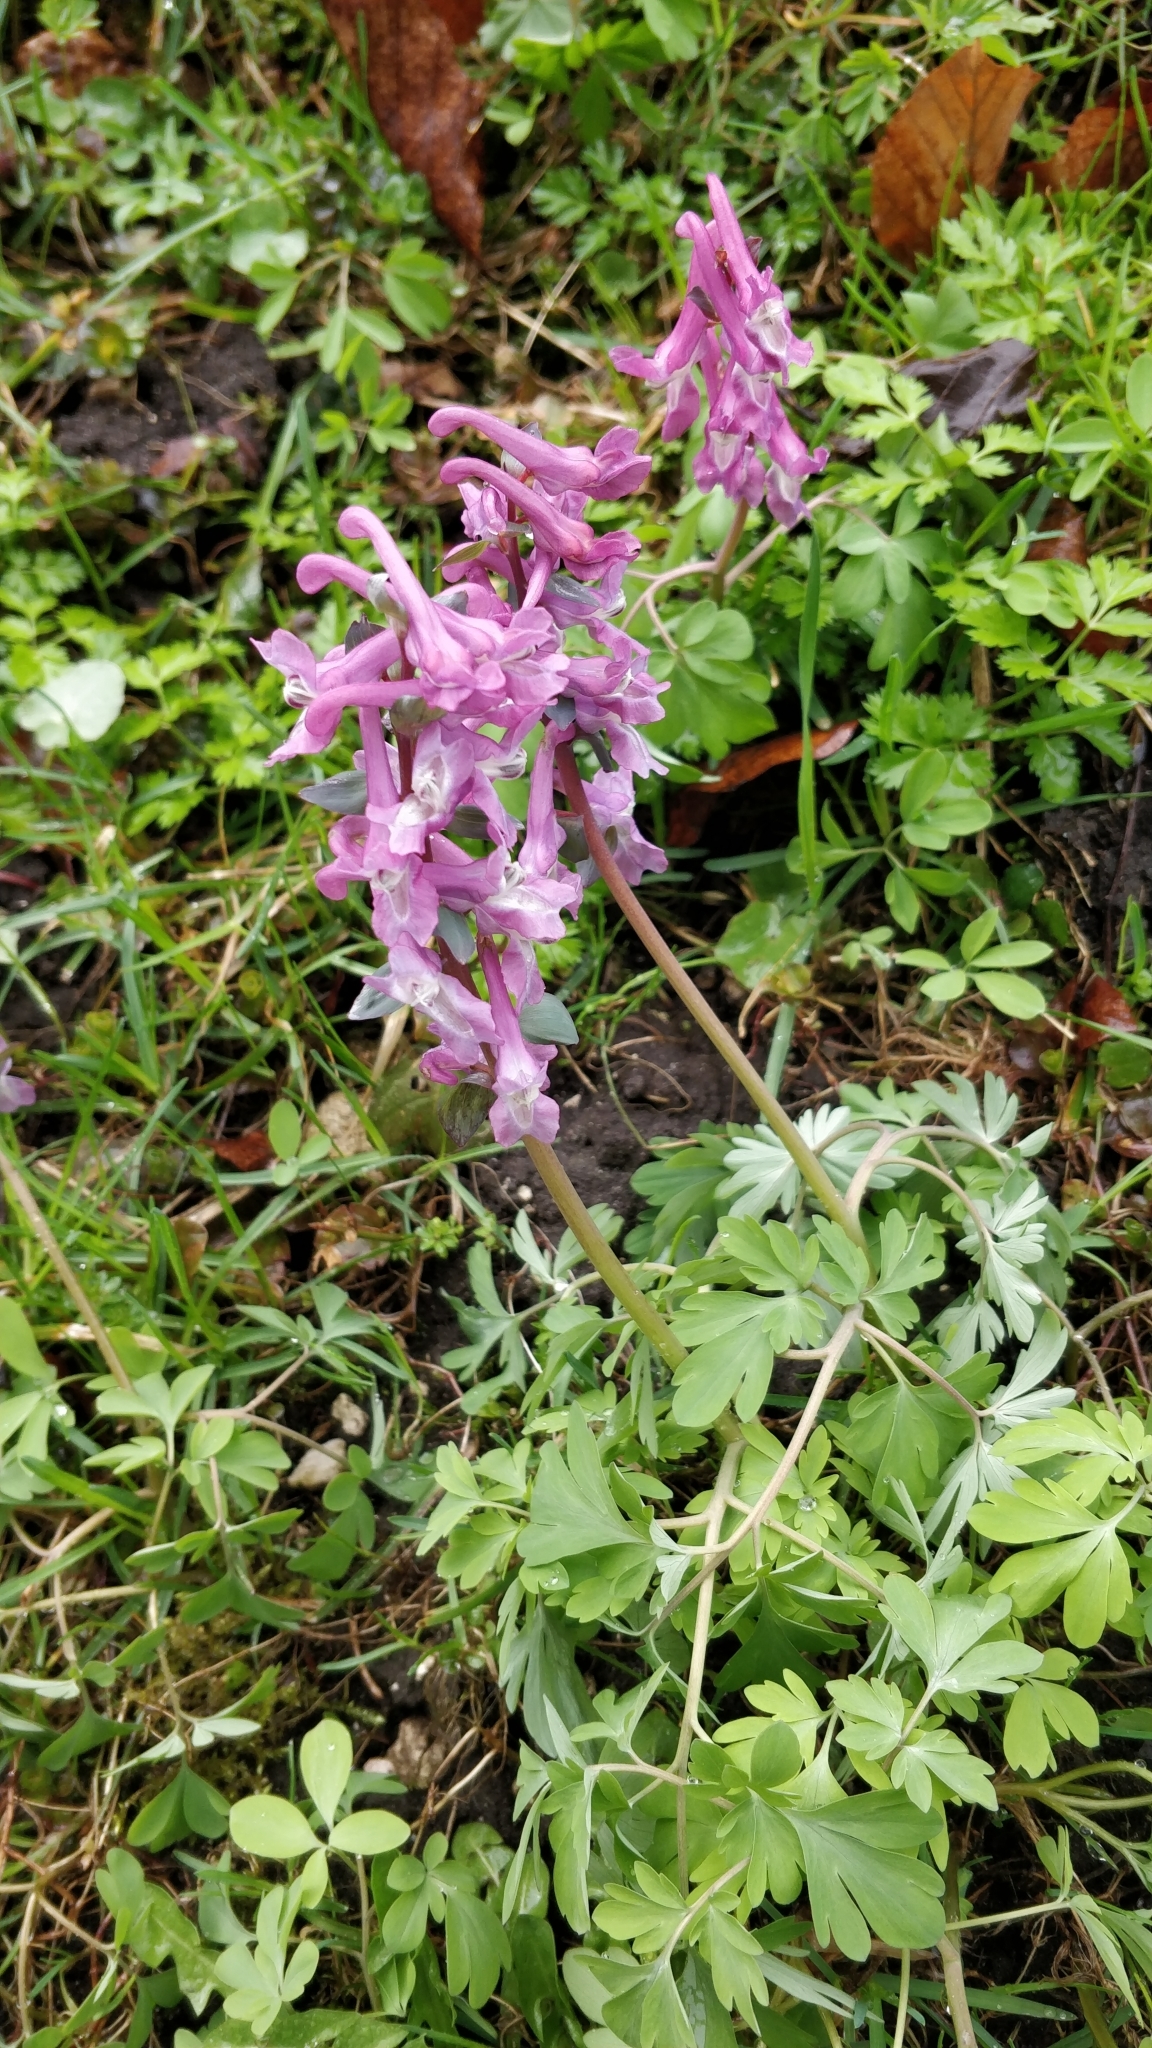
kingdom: Plantae
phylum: Tracheophyta
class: Magnoliopsida
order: Ranunculales
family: Papaveraceae
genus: Corydalis
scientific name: Corydalis cava
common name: Hollowroot
